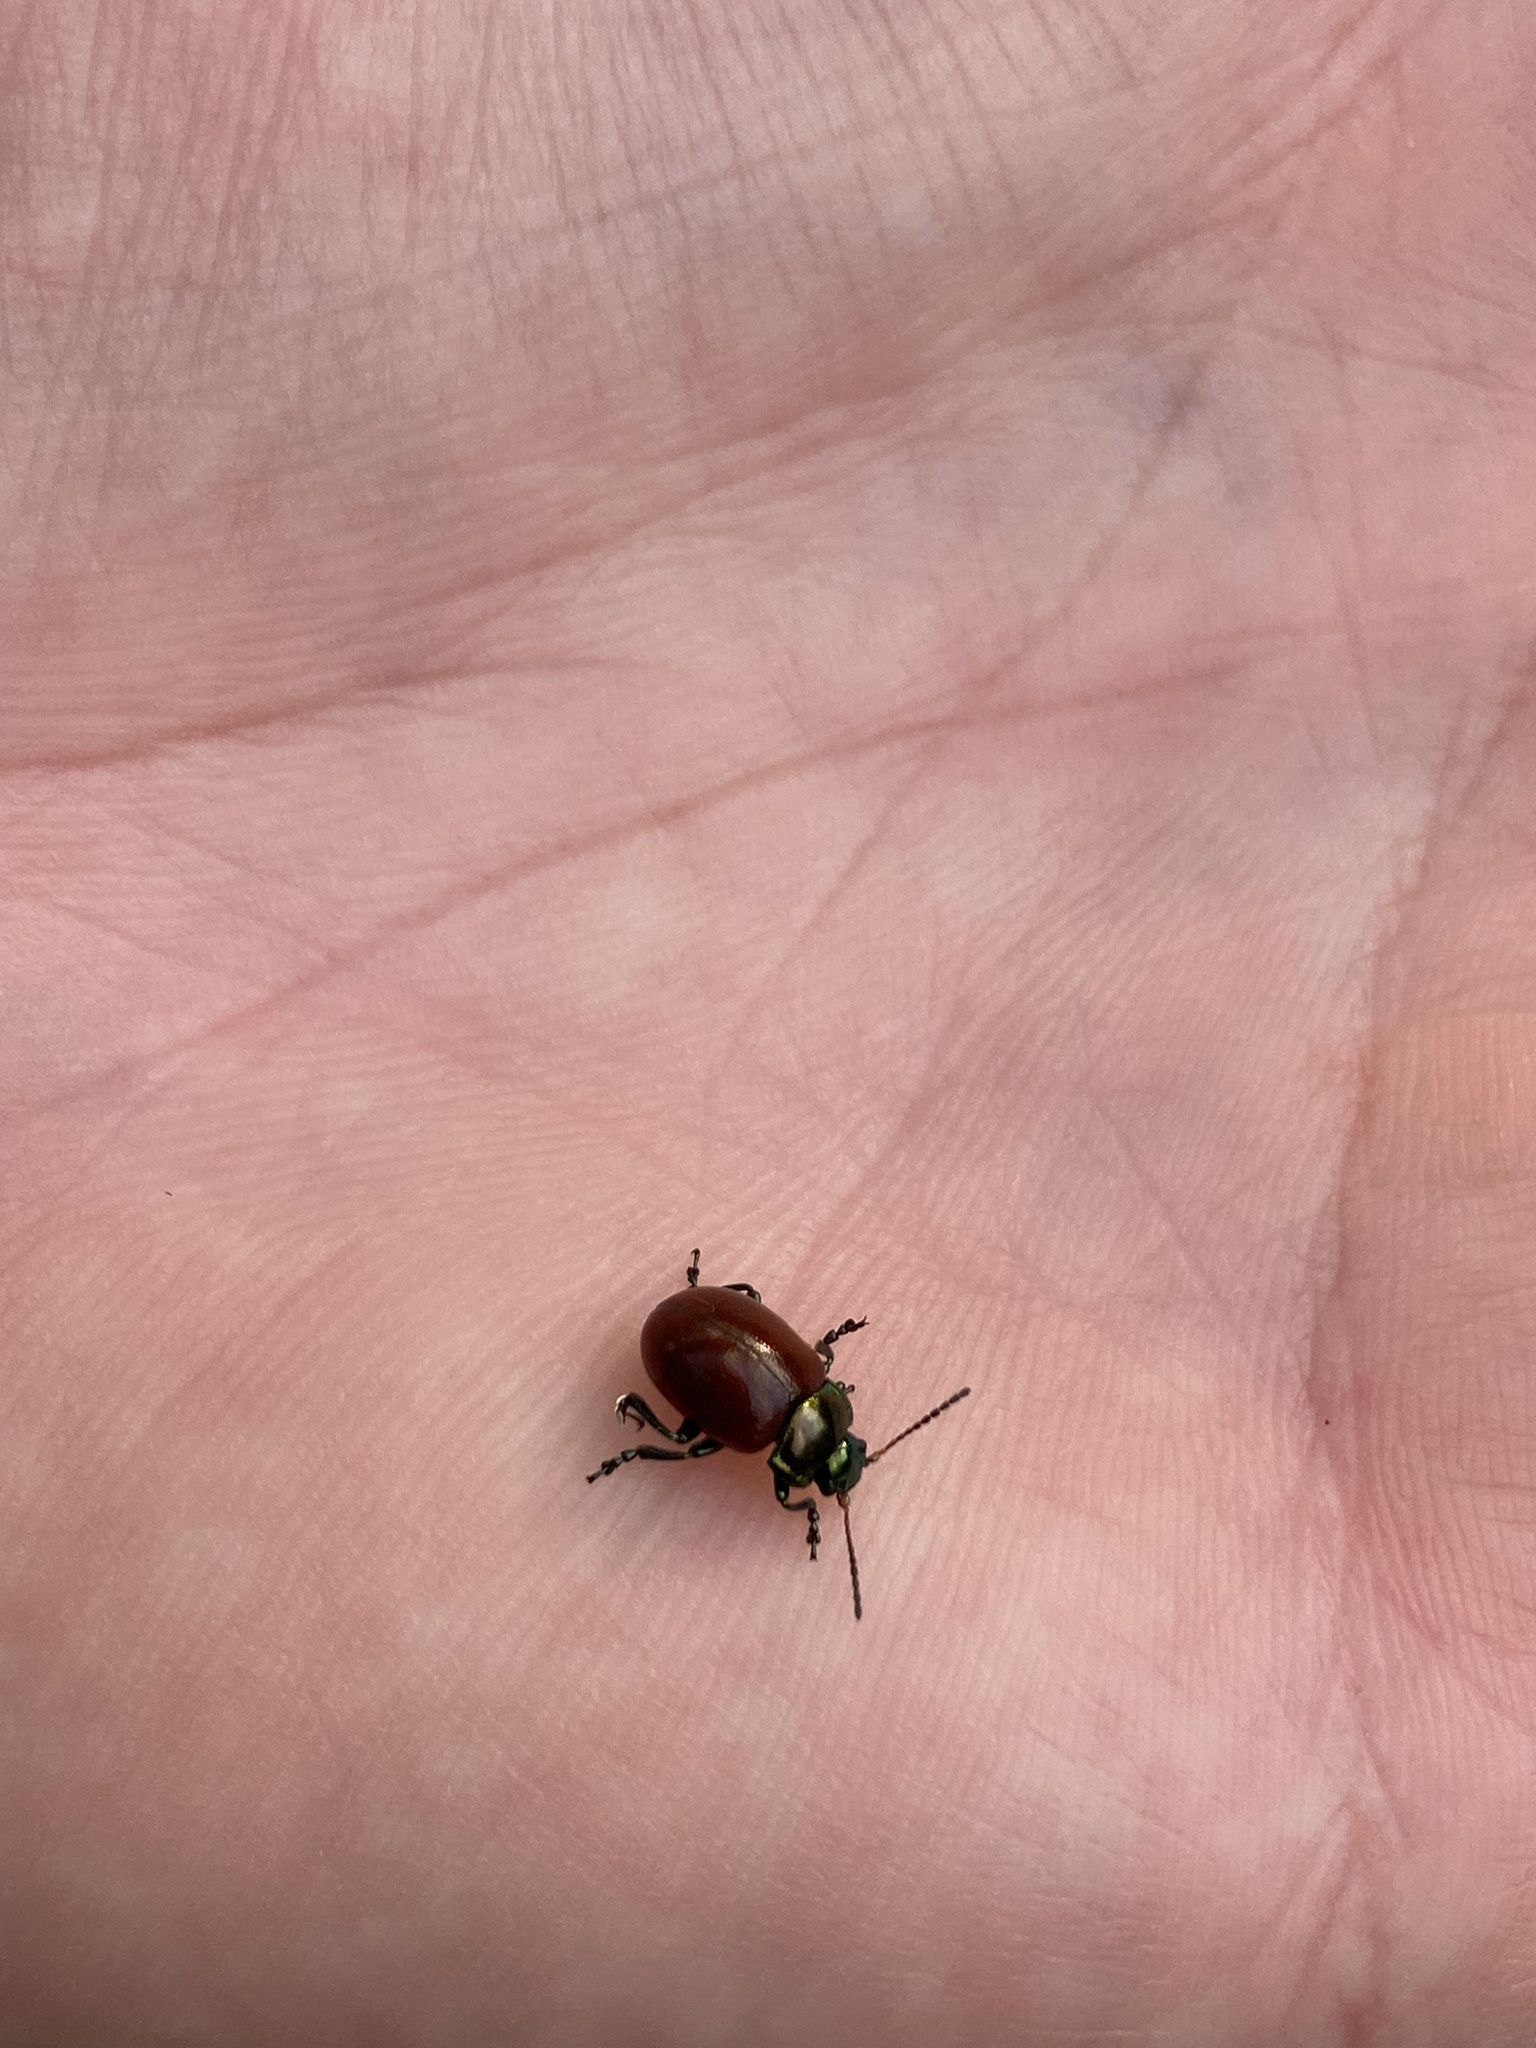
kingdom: Animalia
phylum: Arthropoda
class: Insecta
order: Coleoptera
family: Chrysomelidae
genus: Chrysomela
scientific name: Chrysomela polita
